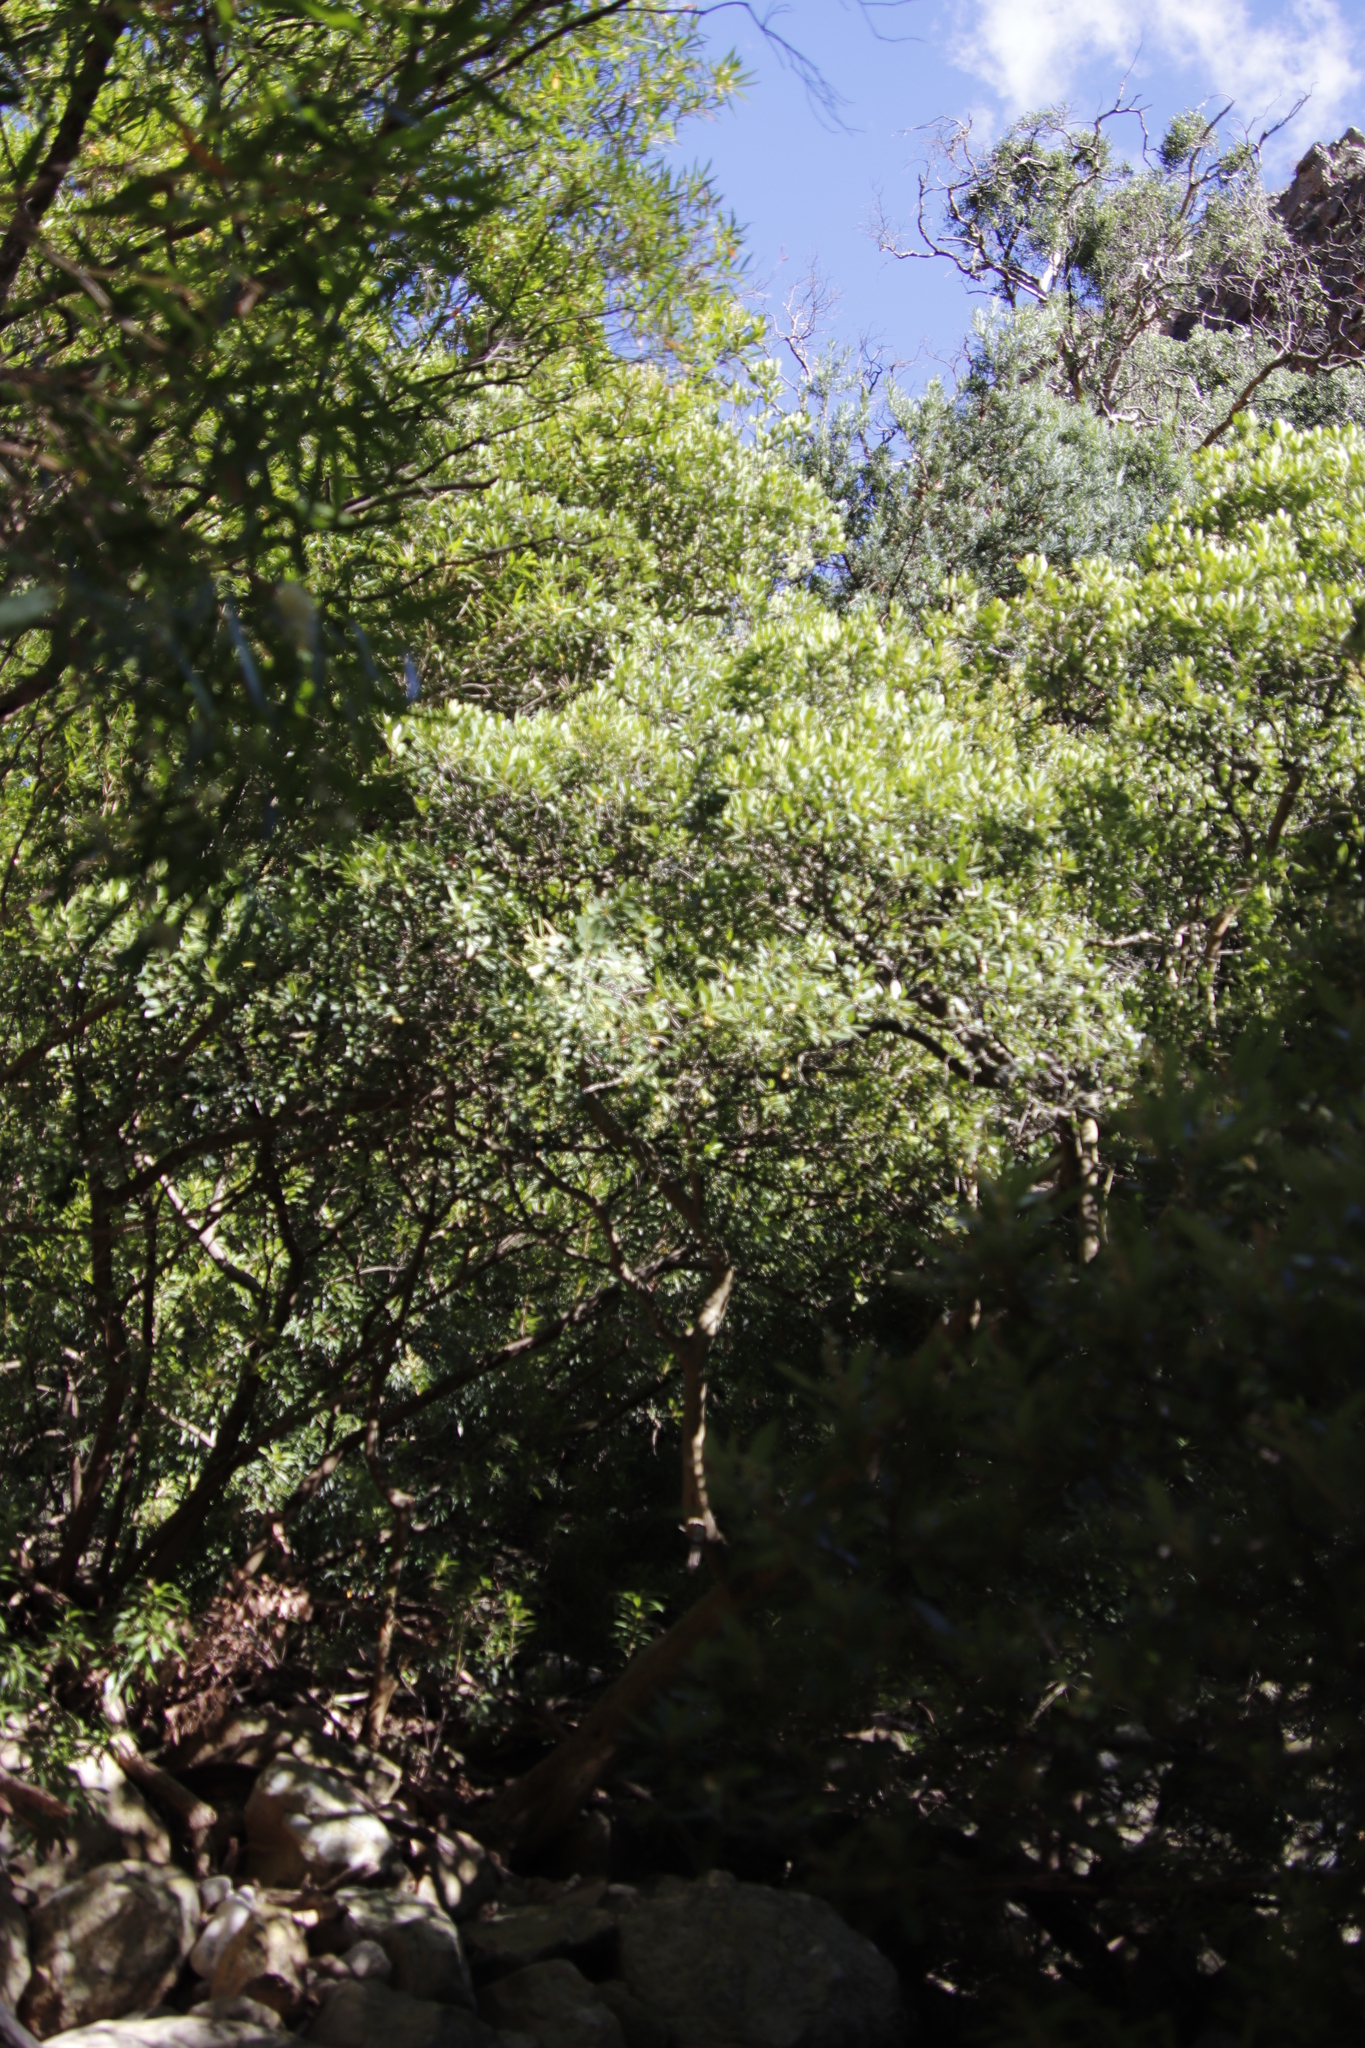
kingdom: Plantae
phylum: Tracheophyta
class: Magnoliopsida
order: Celastrales
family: Celastraceae
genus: Elaeodendron
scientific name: Elaeodendron schinoides
